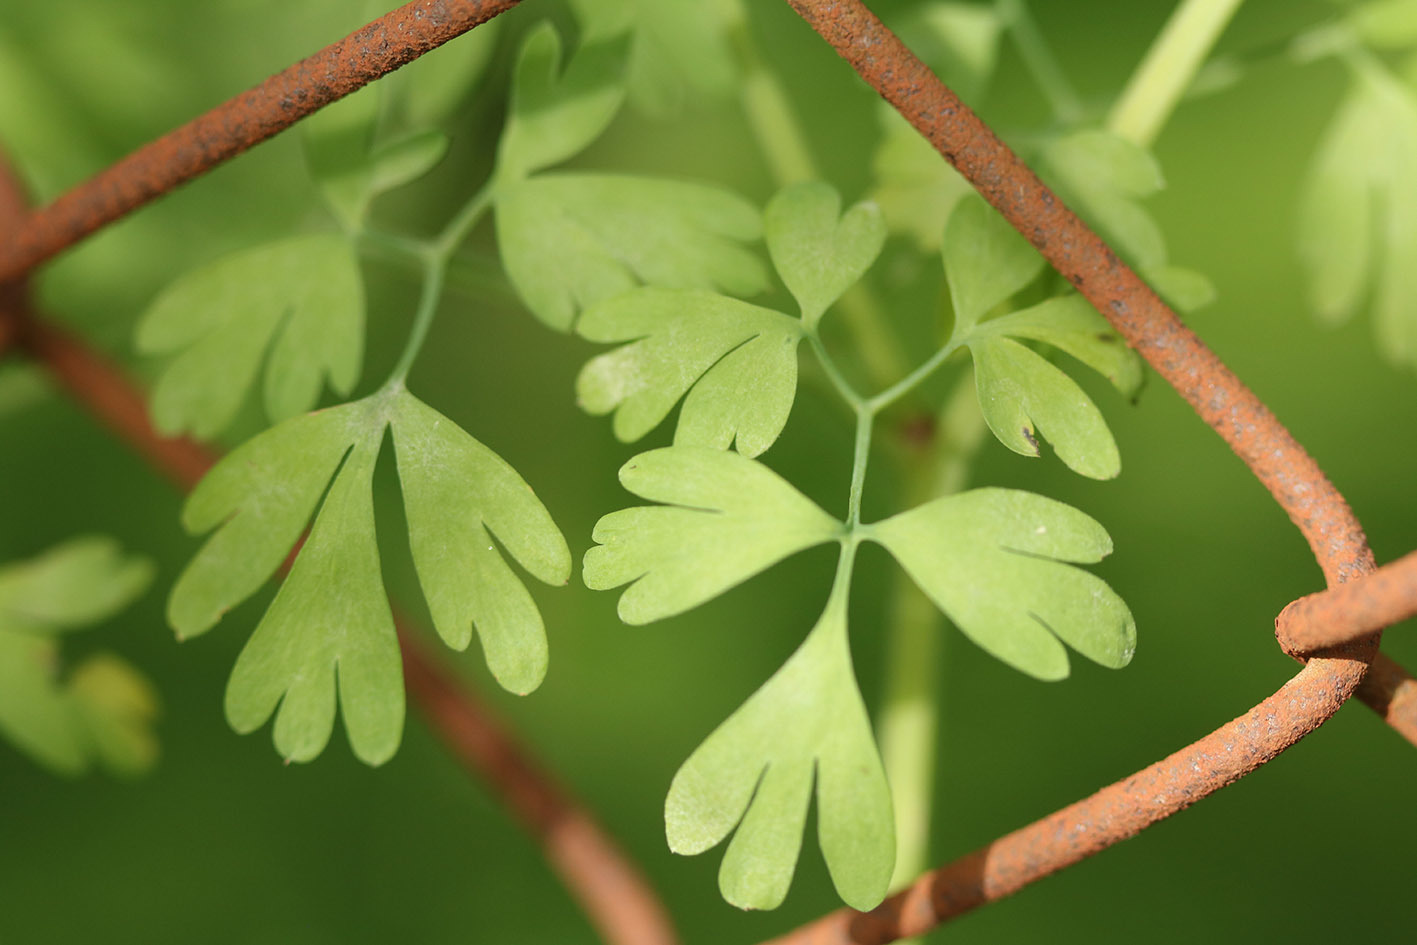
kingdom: Plantae
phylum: Tracheophyta
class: Magnoliopsida
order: Ranunculales
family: Papaveraceae
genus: Fumaria
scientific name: Fumaria capreolata
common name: White ramping-fumitory
